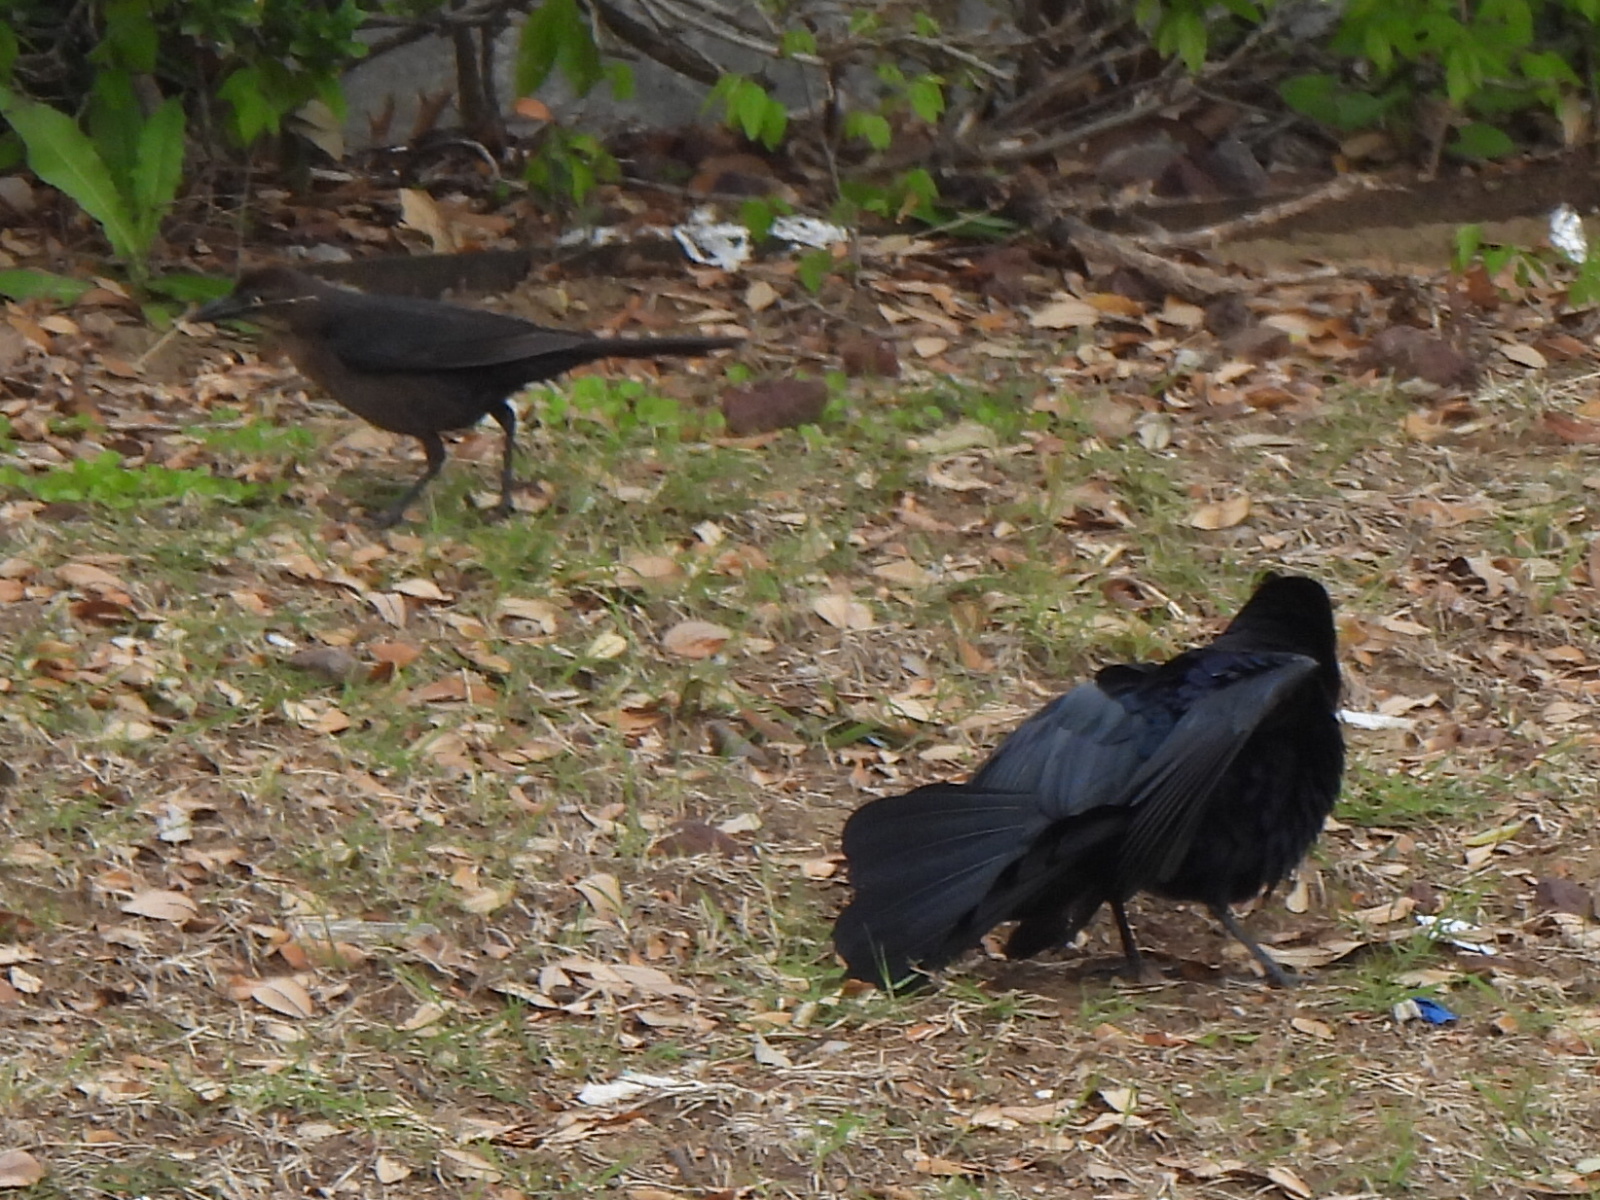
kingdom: Animalia
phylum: Chordata
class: Aves
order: Passeriformes
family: Icteridae
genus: Quiscalus
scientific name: Quiscalus mexicanus
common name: Great-tailed grackle
